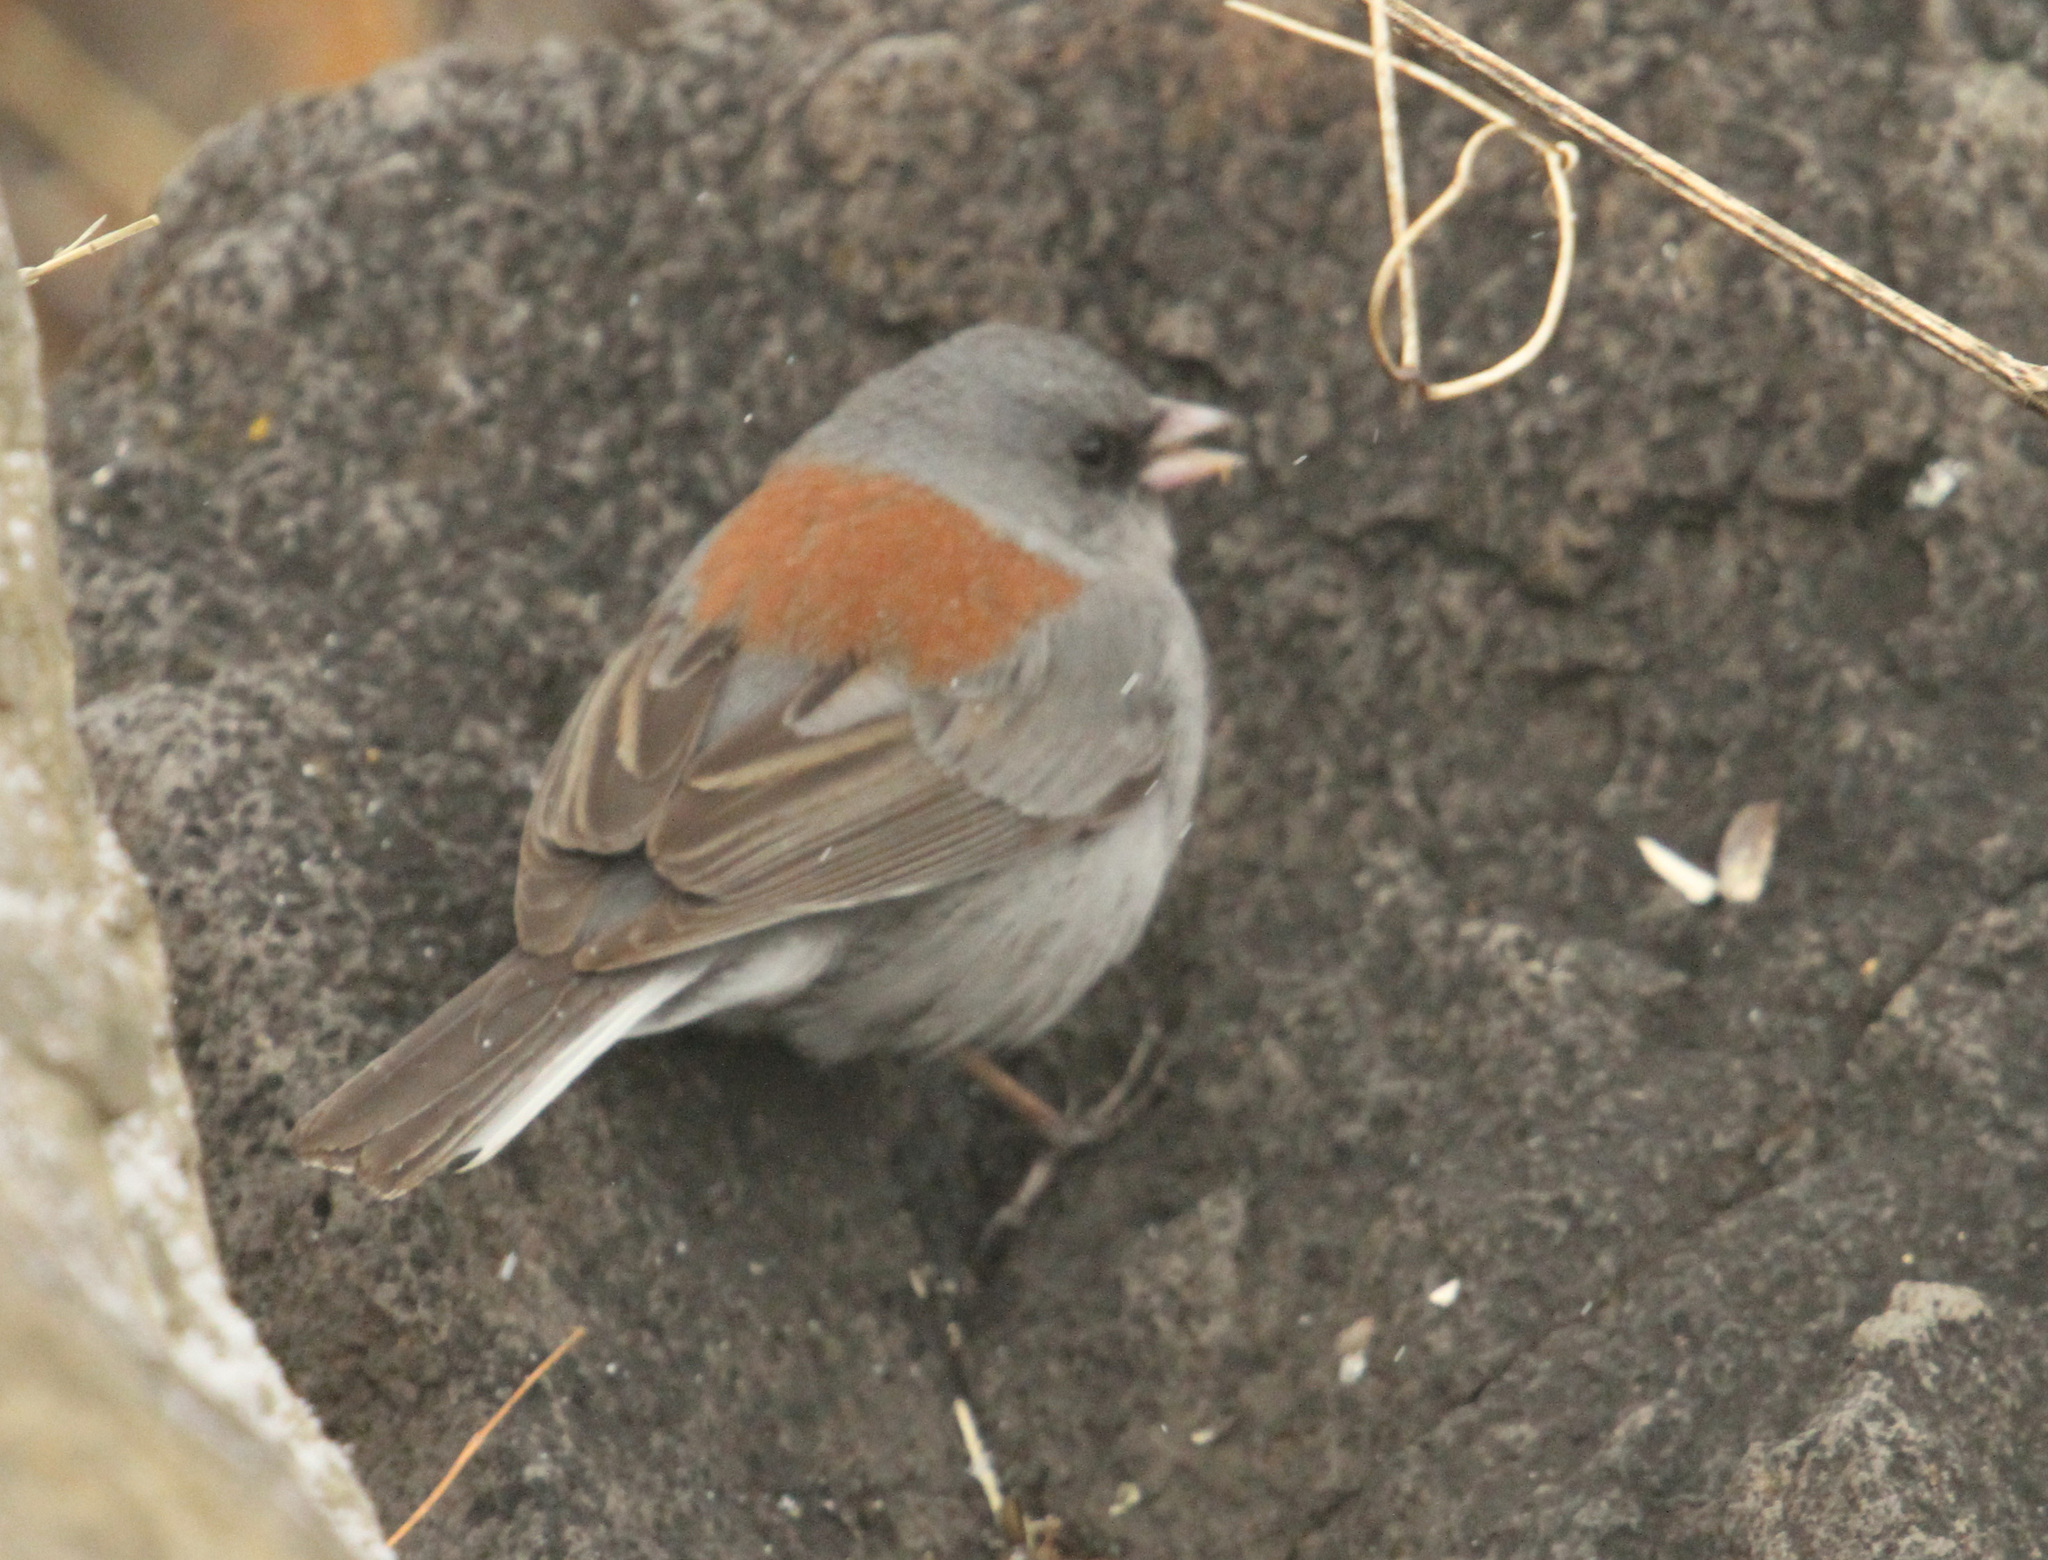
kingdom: Animalia
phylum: Chordata
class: Aves
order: Passeriformes
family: Passerellidae
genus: Junco
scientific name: Junco hyemalis
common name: Dark-eyed junco
